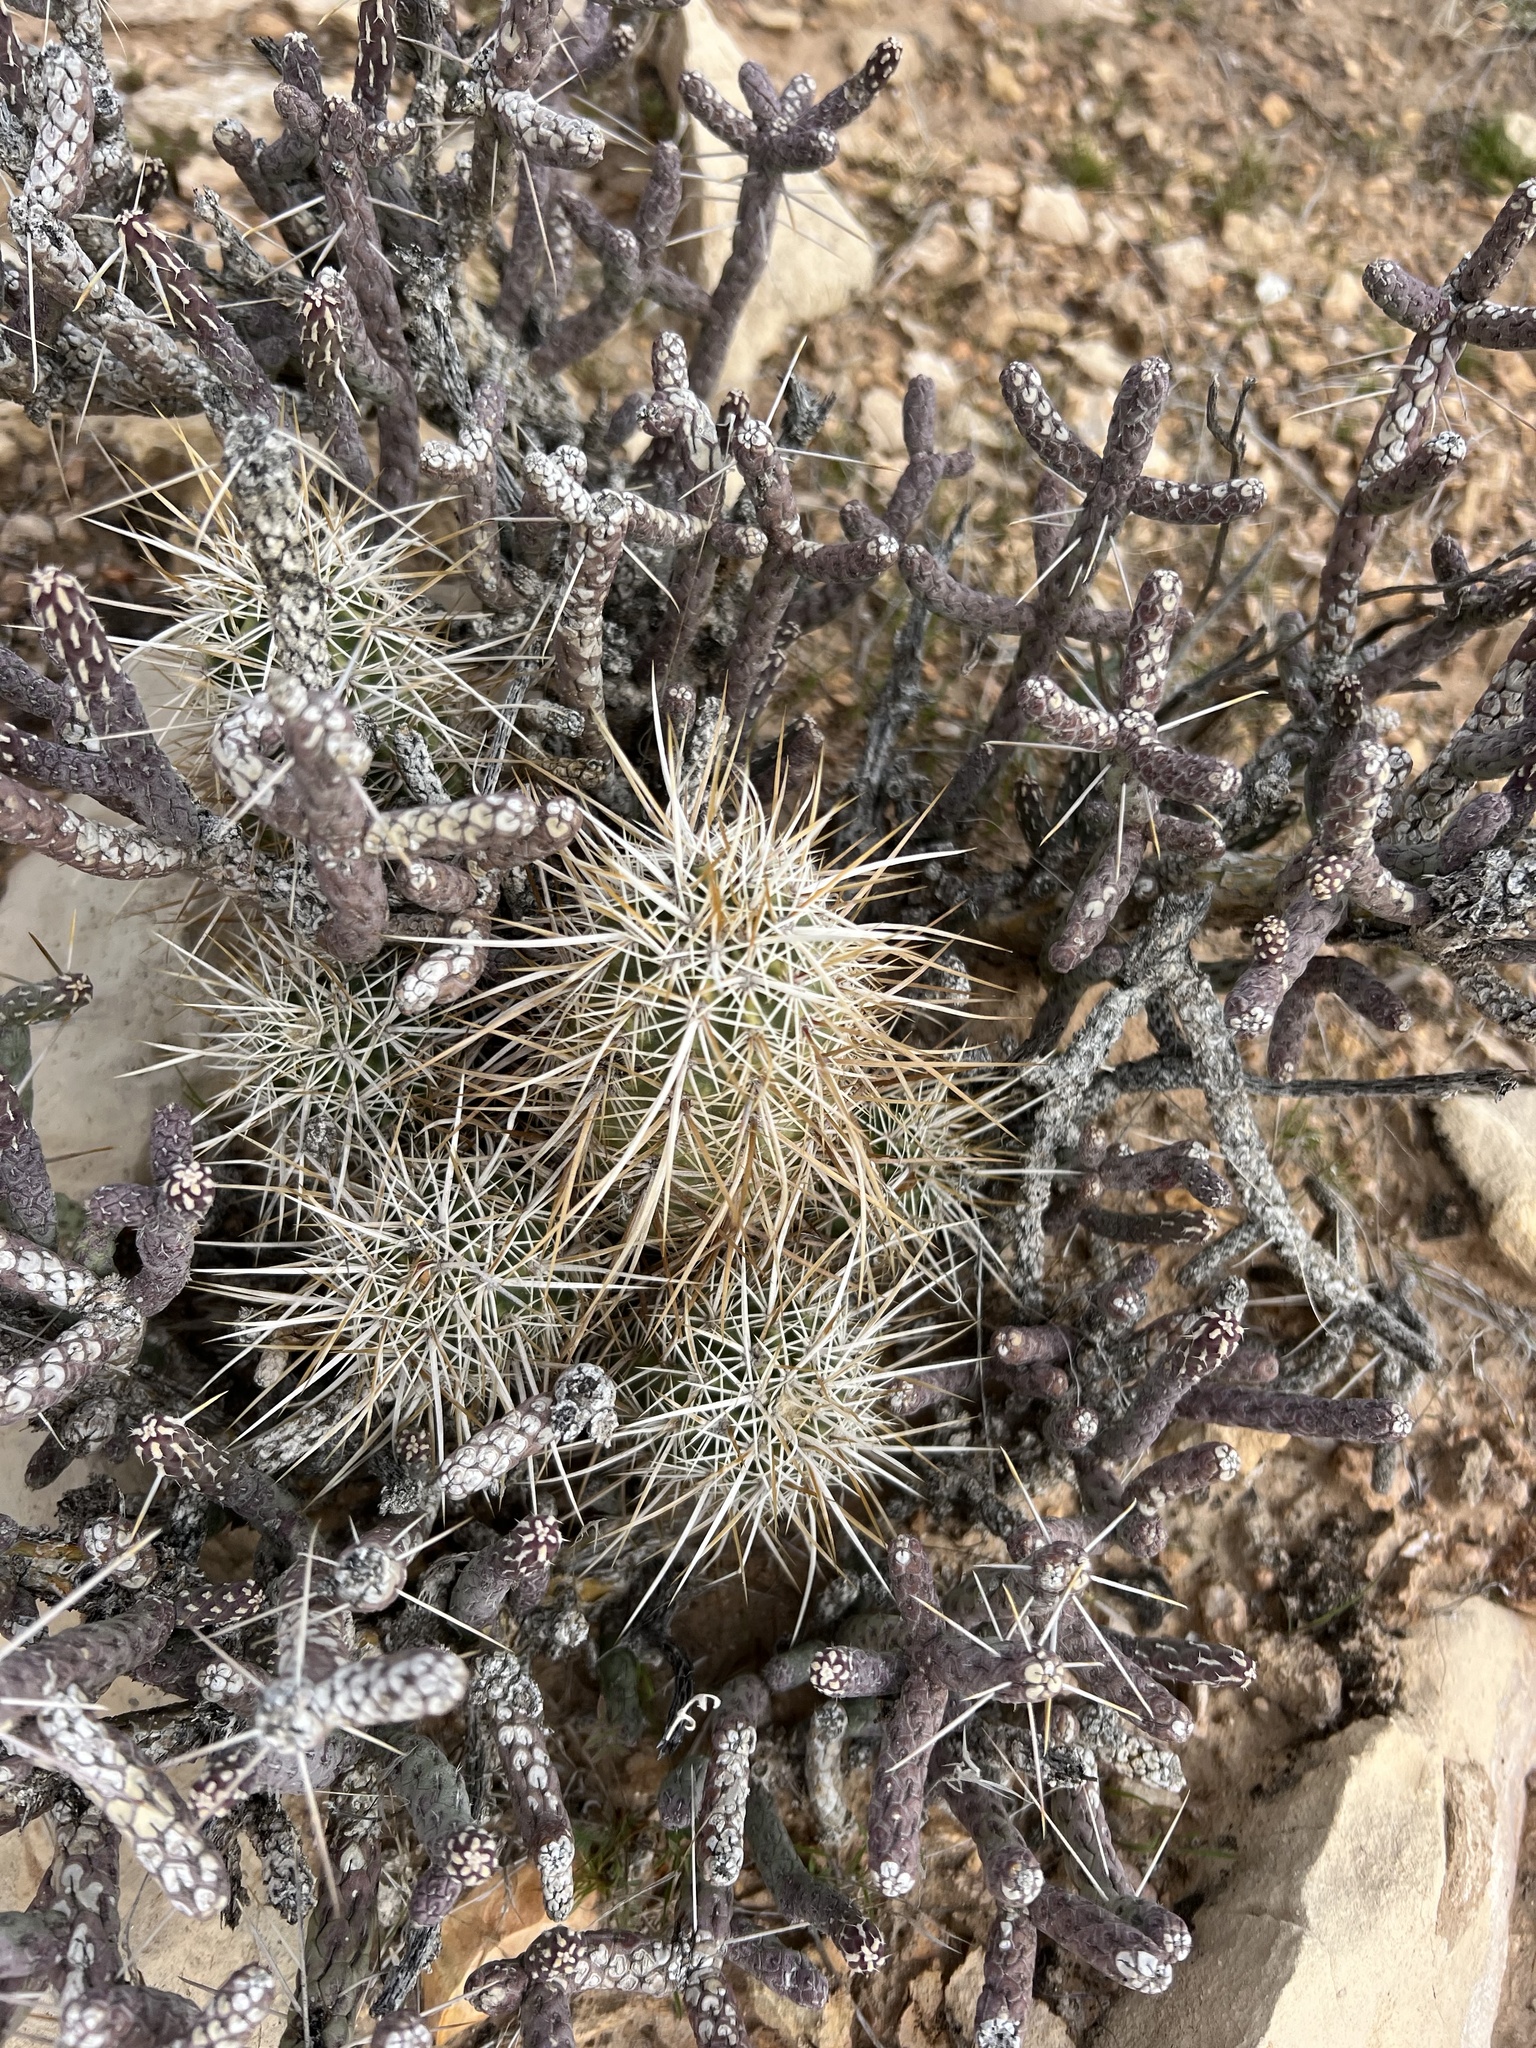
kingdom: Plantae
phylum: Tracheophyta
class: Magnoliopsida
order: Caryophyllales
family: Cactaceae
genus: Echinocereus
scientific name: Echinocereus engelmannii
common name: Engelmann's hedgehog cactus
